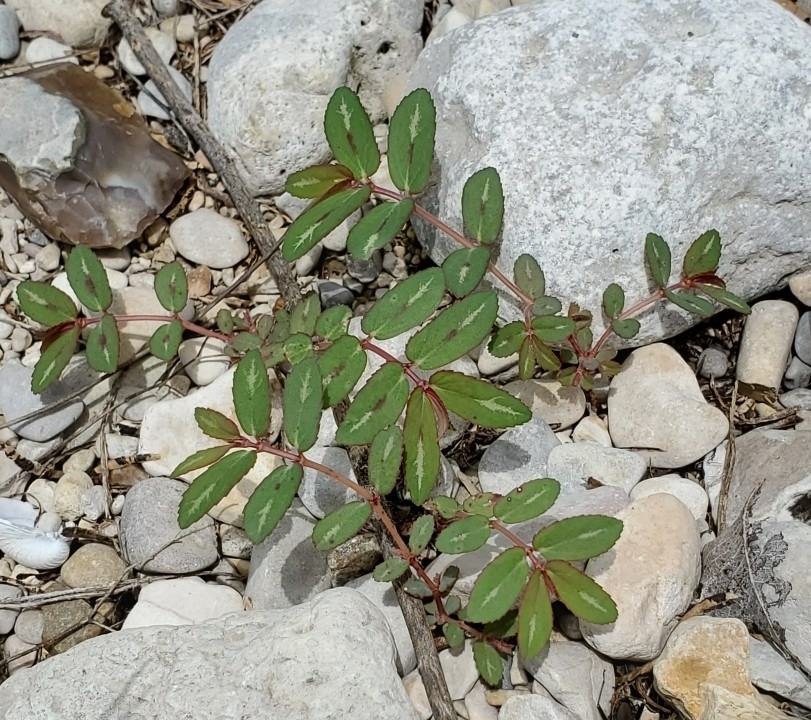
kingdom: Plantae
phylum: Tracheophyta
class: Magnoliopsida
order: Malpighiales
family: Euphorbiaceae
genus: Euphorbia
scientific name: Euphorbia hyssopifolia
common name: Hyssopleaf sandmat
